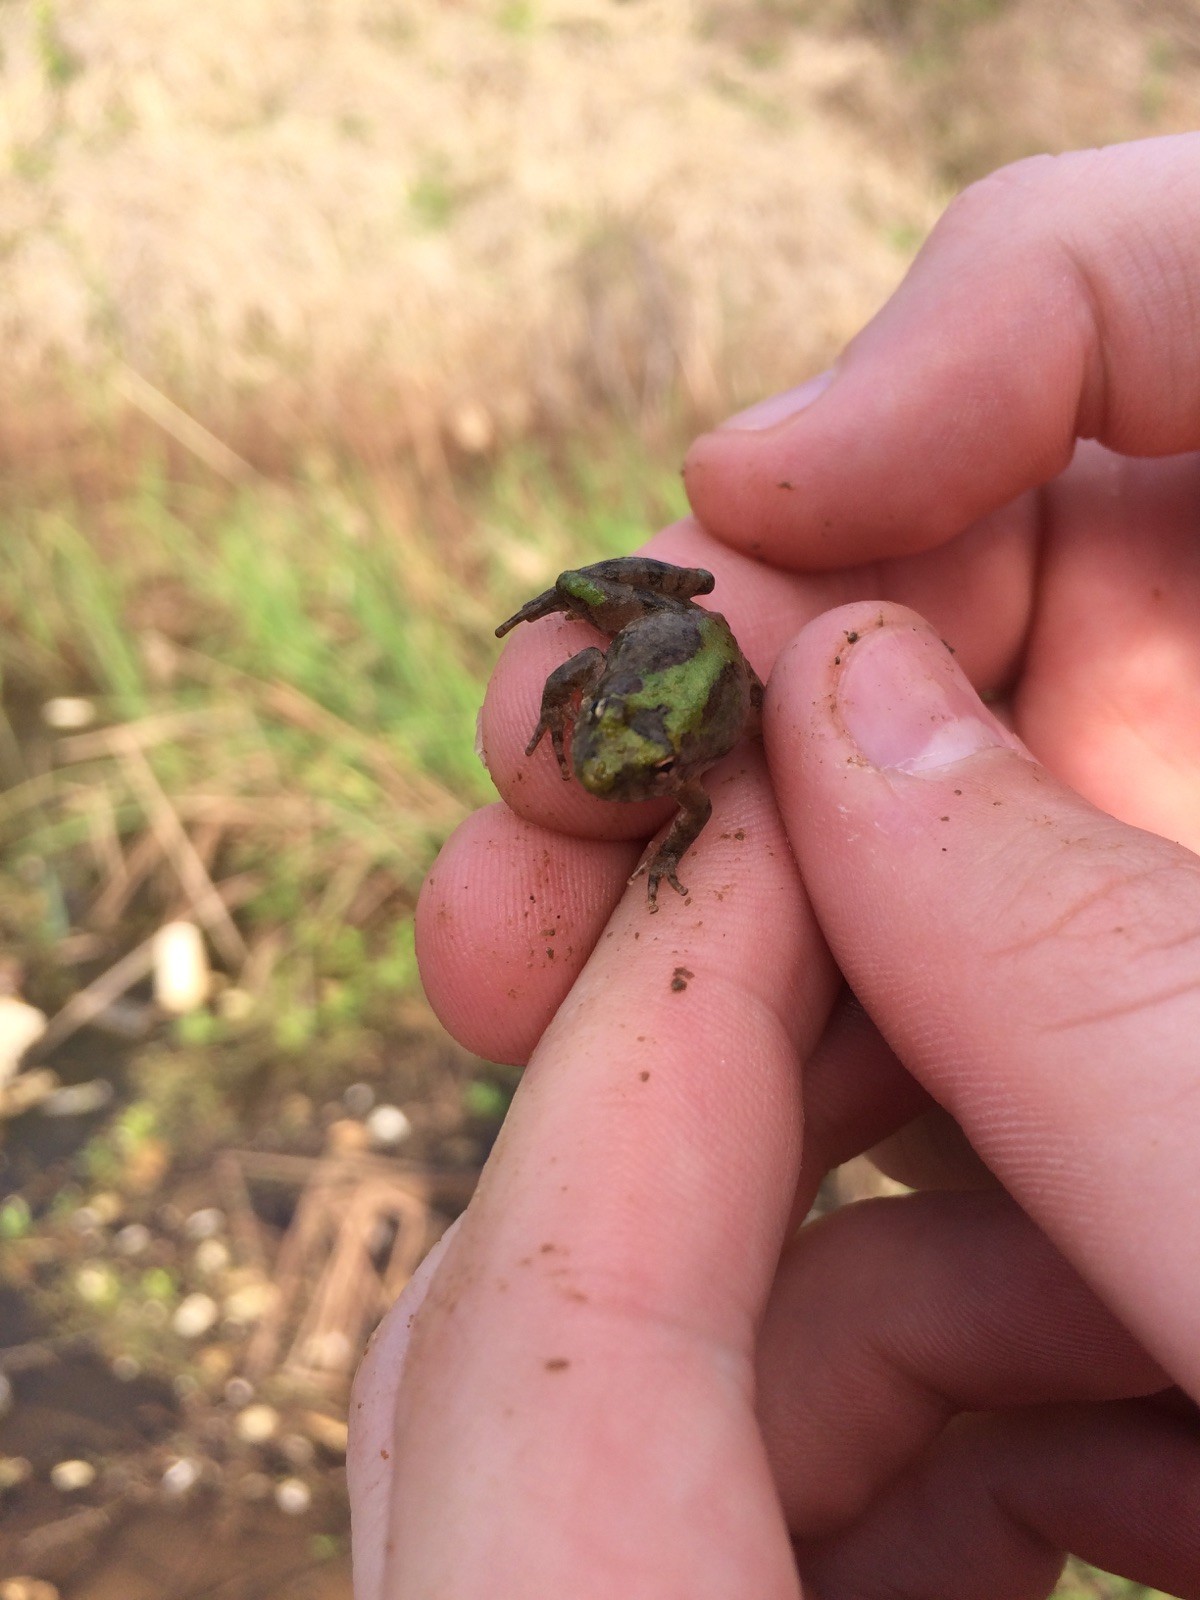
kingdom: Animalia
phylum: Chordata
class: Amphibia
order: Anura
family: Hylidae
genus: Acris
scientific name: Acris blanchardi
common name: Blanchard's cricket frog
